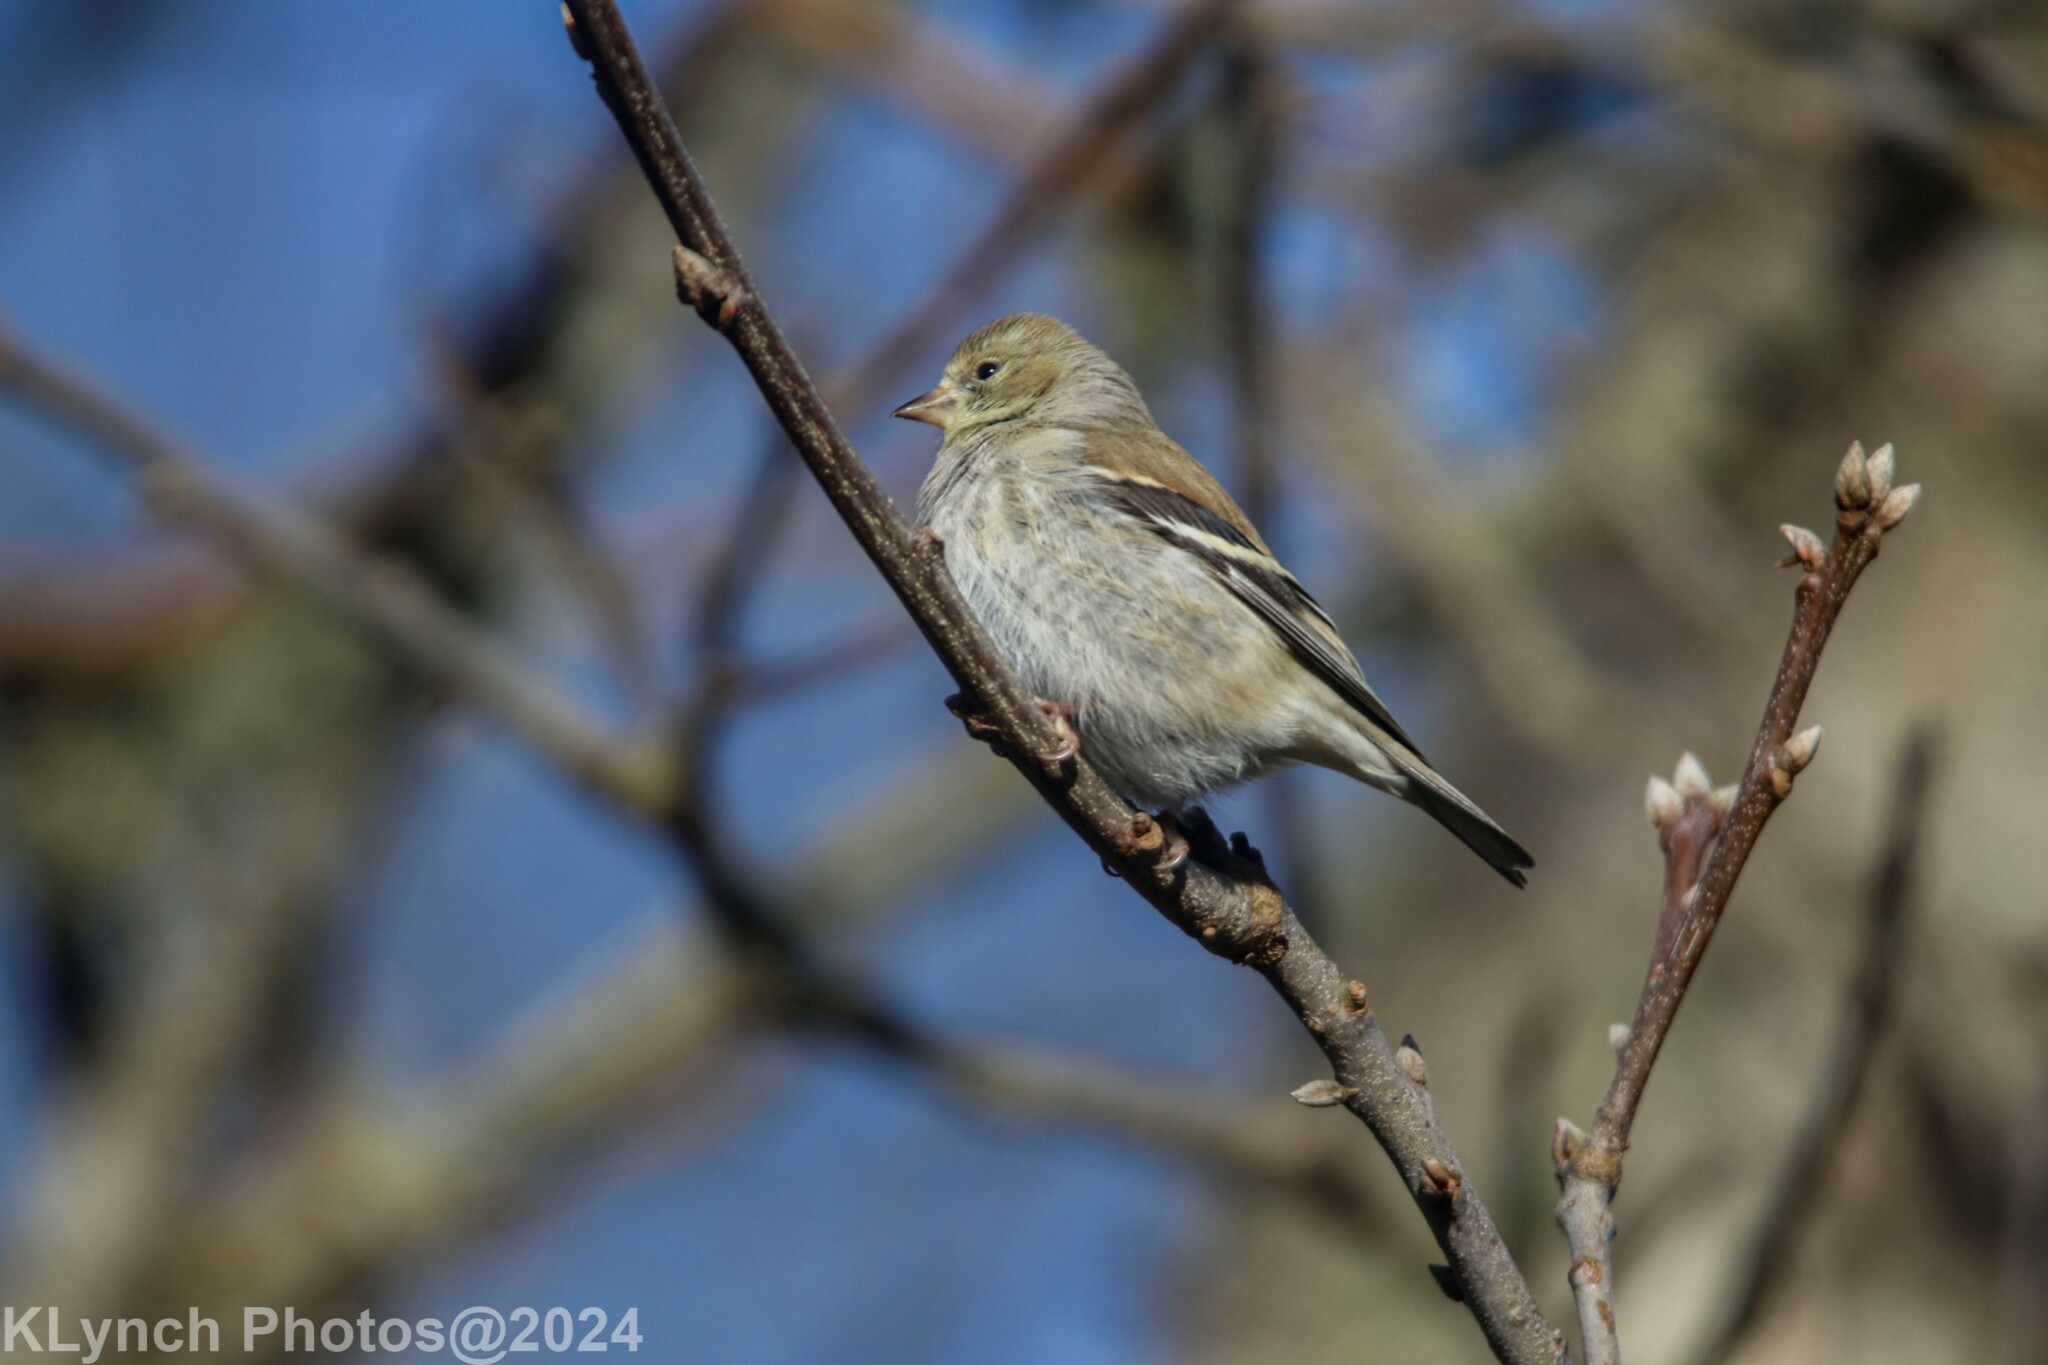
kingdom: Animalia
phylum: Chordata
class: Aves
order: Passeriformes
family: Fringillidae
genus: Spinus
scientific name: Spinus tristis
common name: American goldfinch
